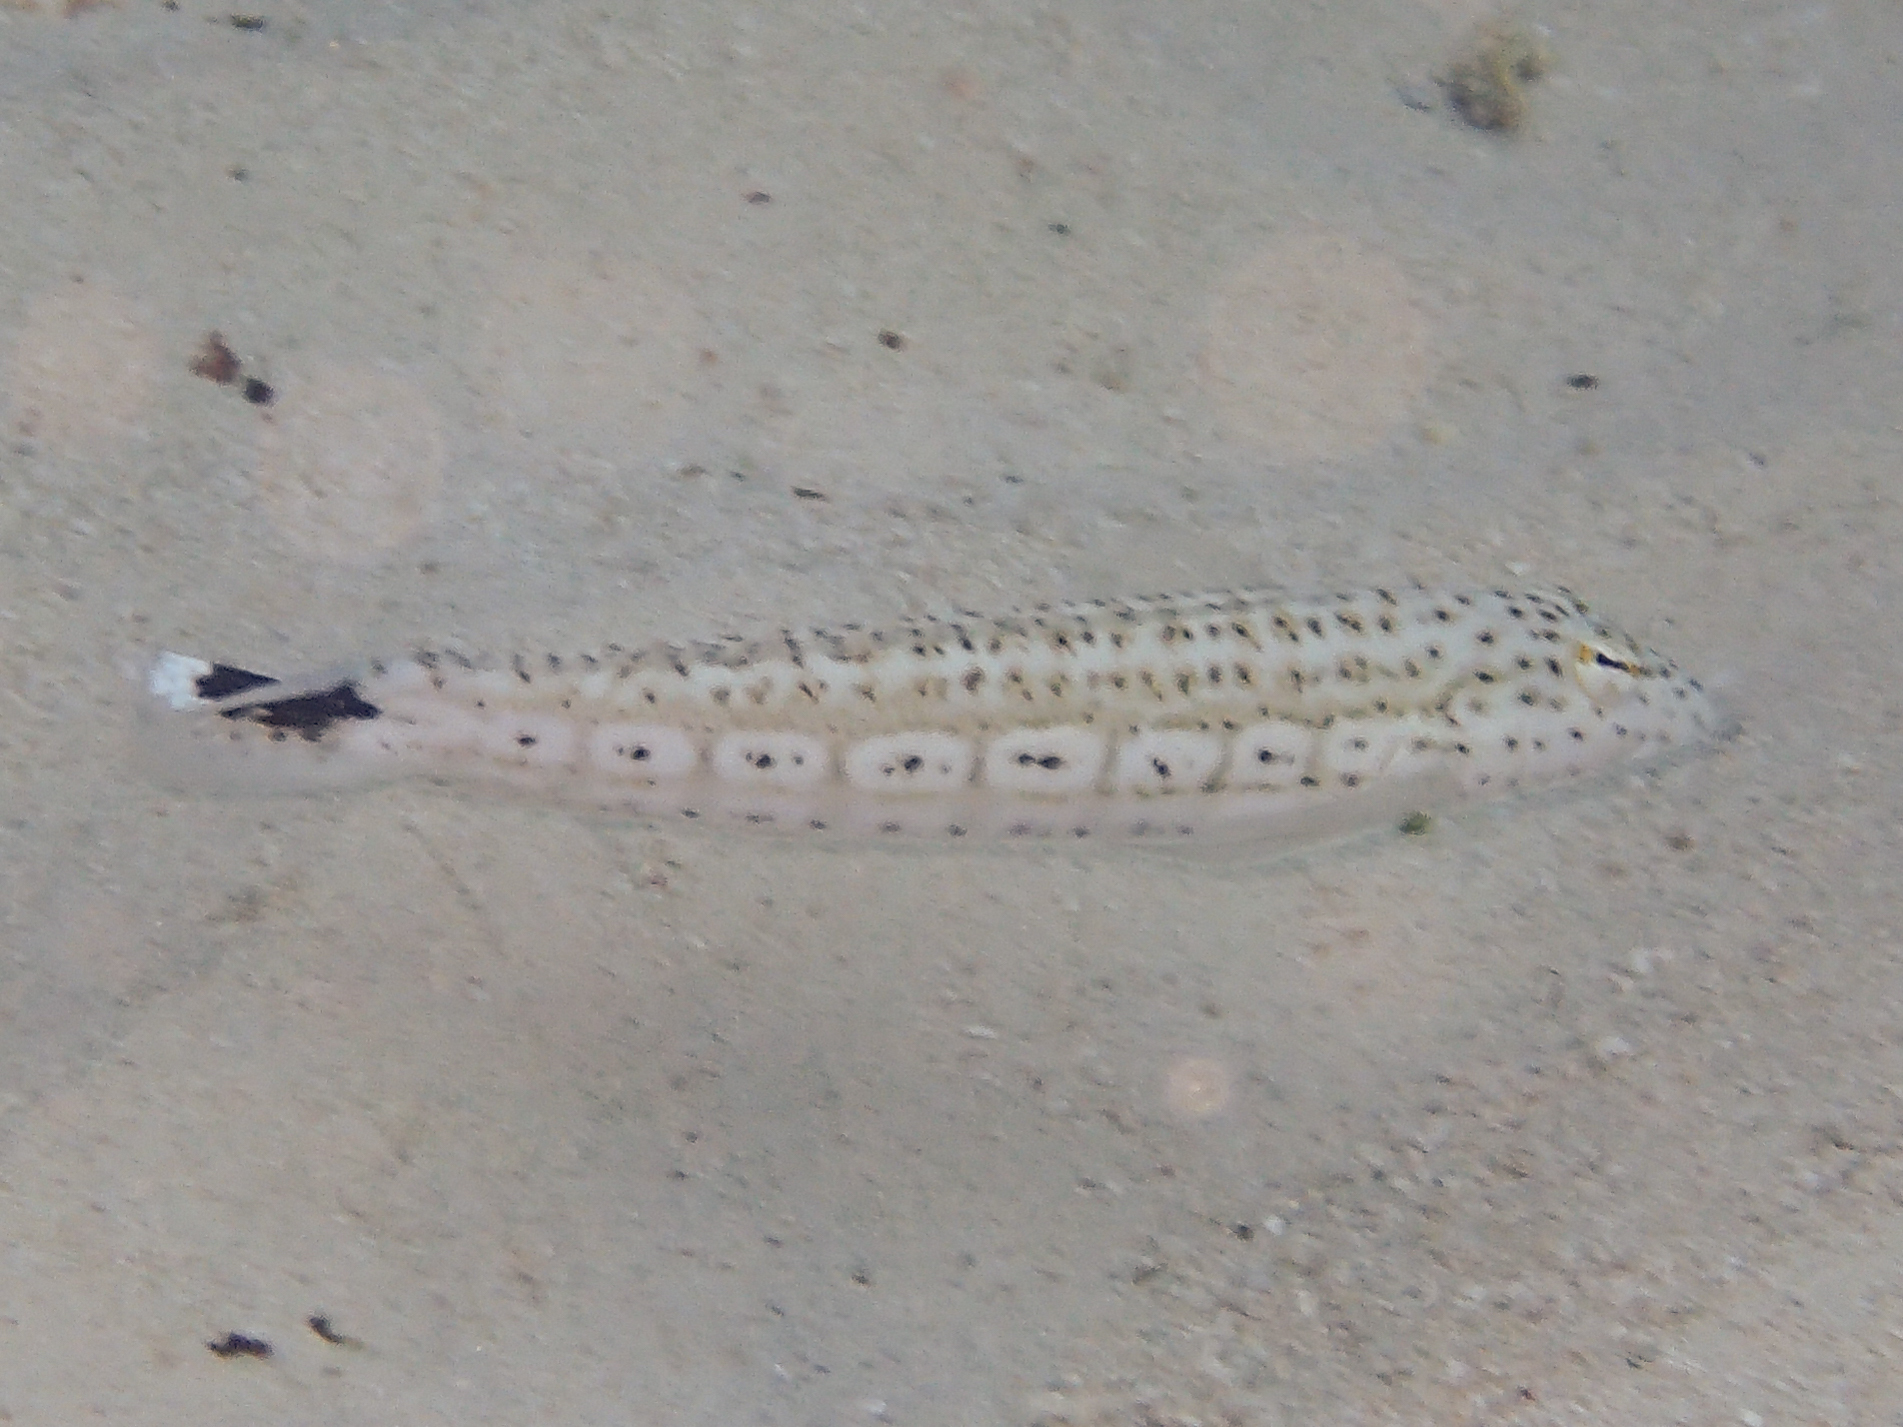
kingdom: Animalia
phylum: Chordata
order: Perciformes
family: Pinguipedidae
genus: Parapercis
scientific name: Parapercis queenslandica
